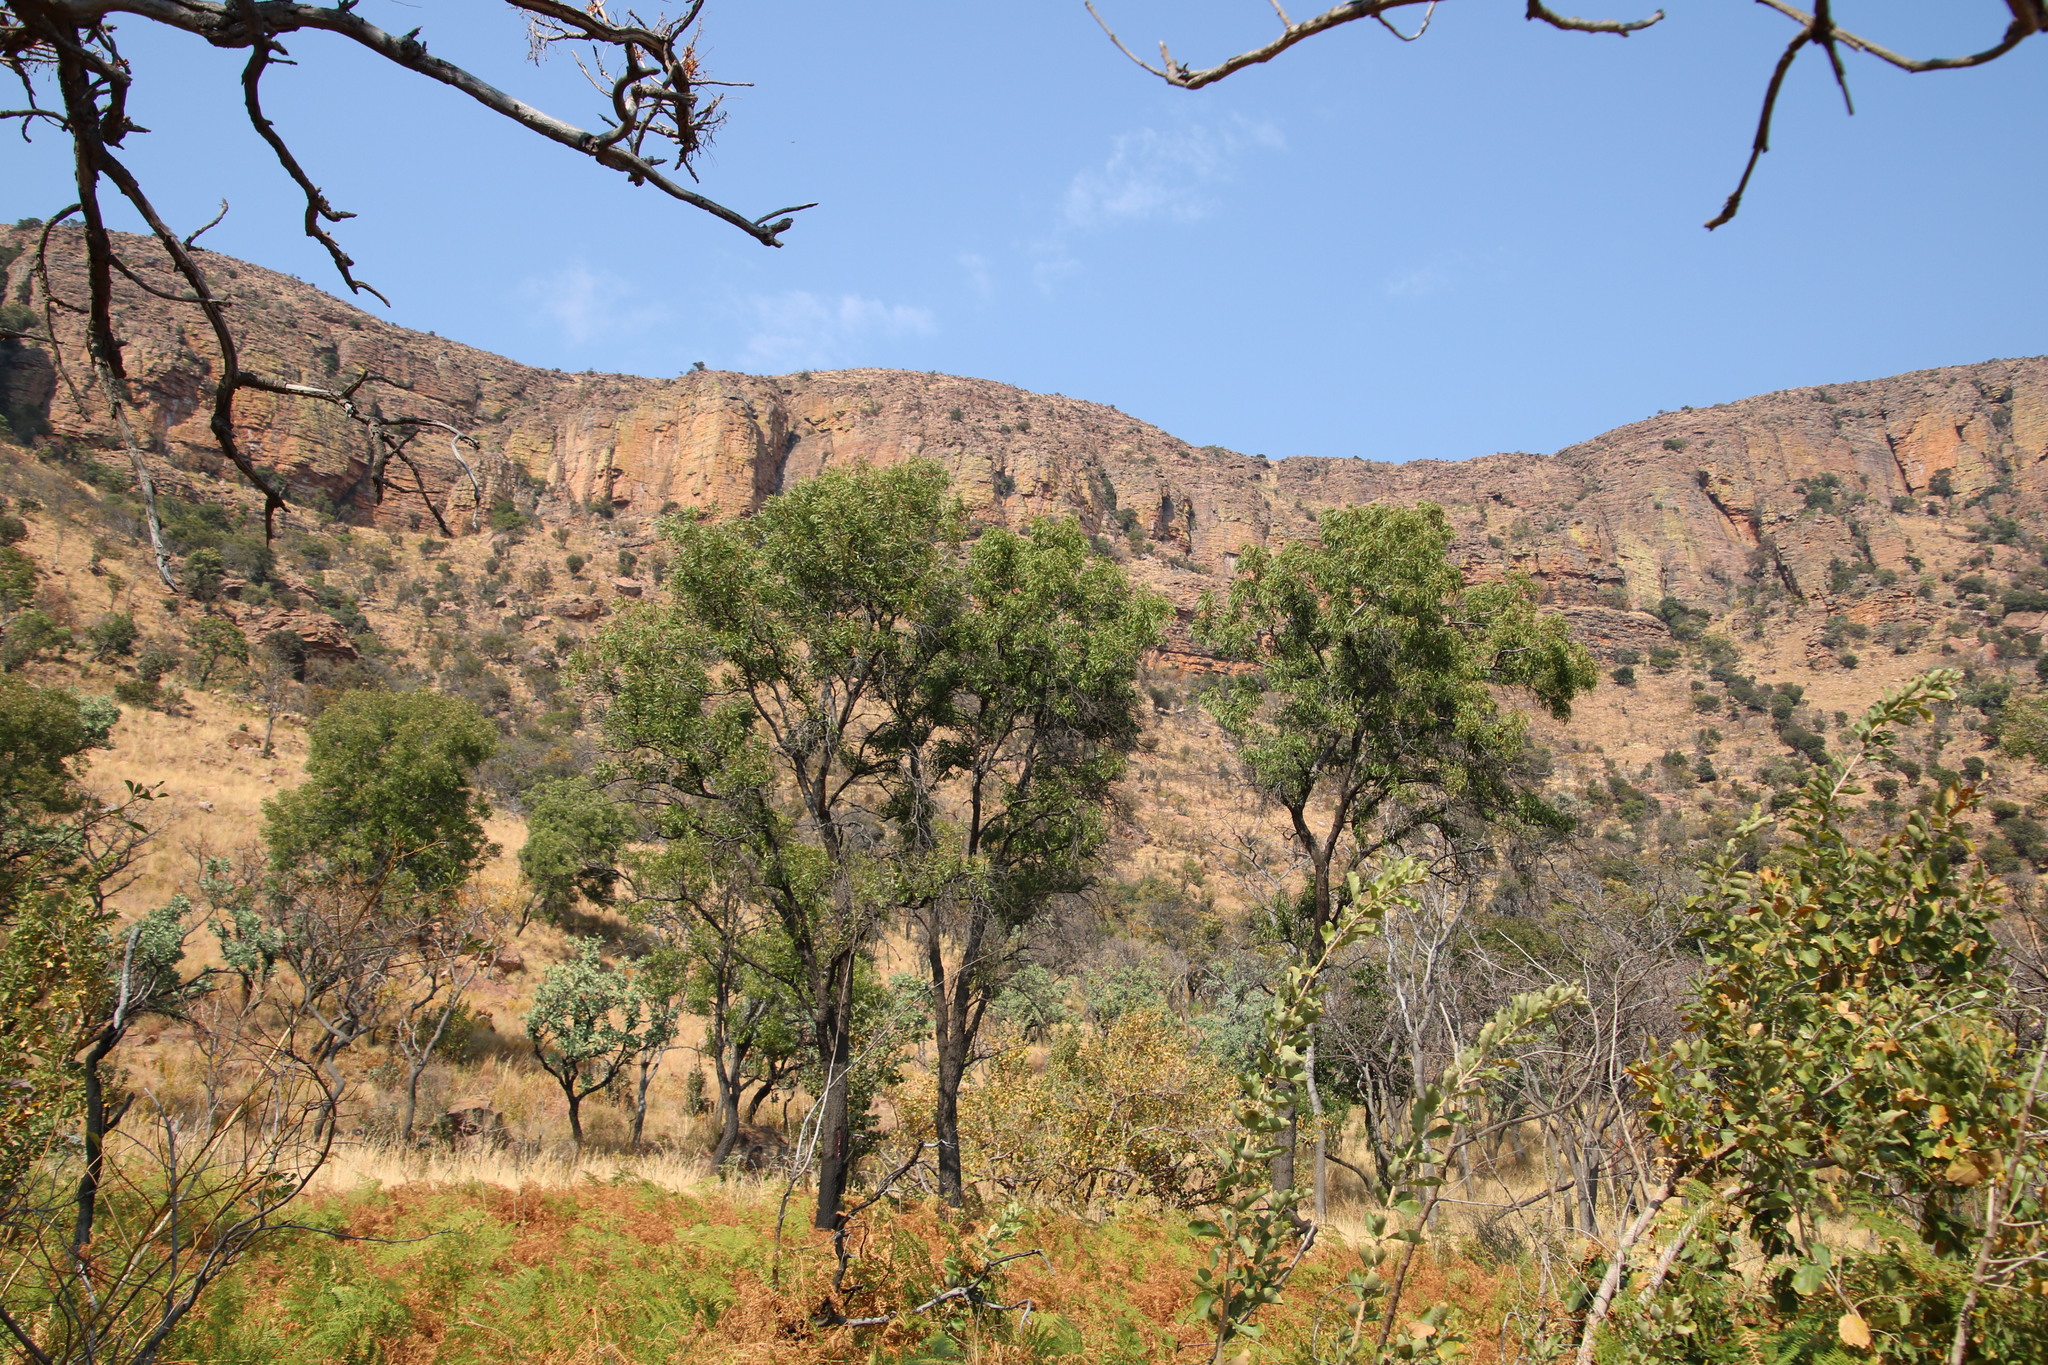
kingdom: Plantae
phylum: Tracheophyta
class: Magnoliopsida
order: Proteales
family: Proteaceae
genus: Faurea
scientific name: Faurea saligna
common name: African bean
